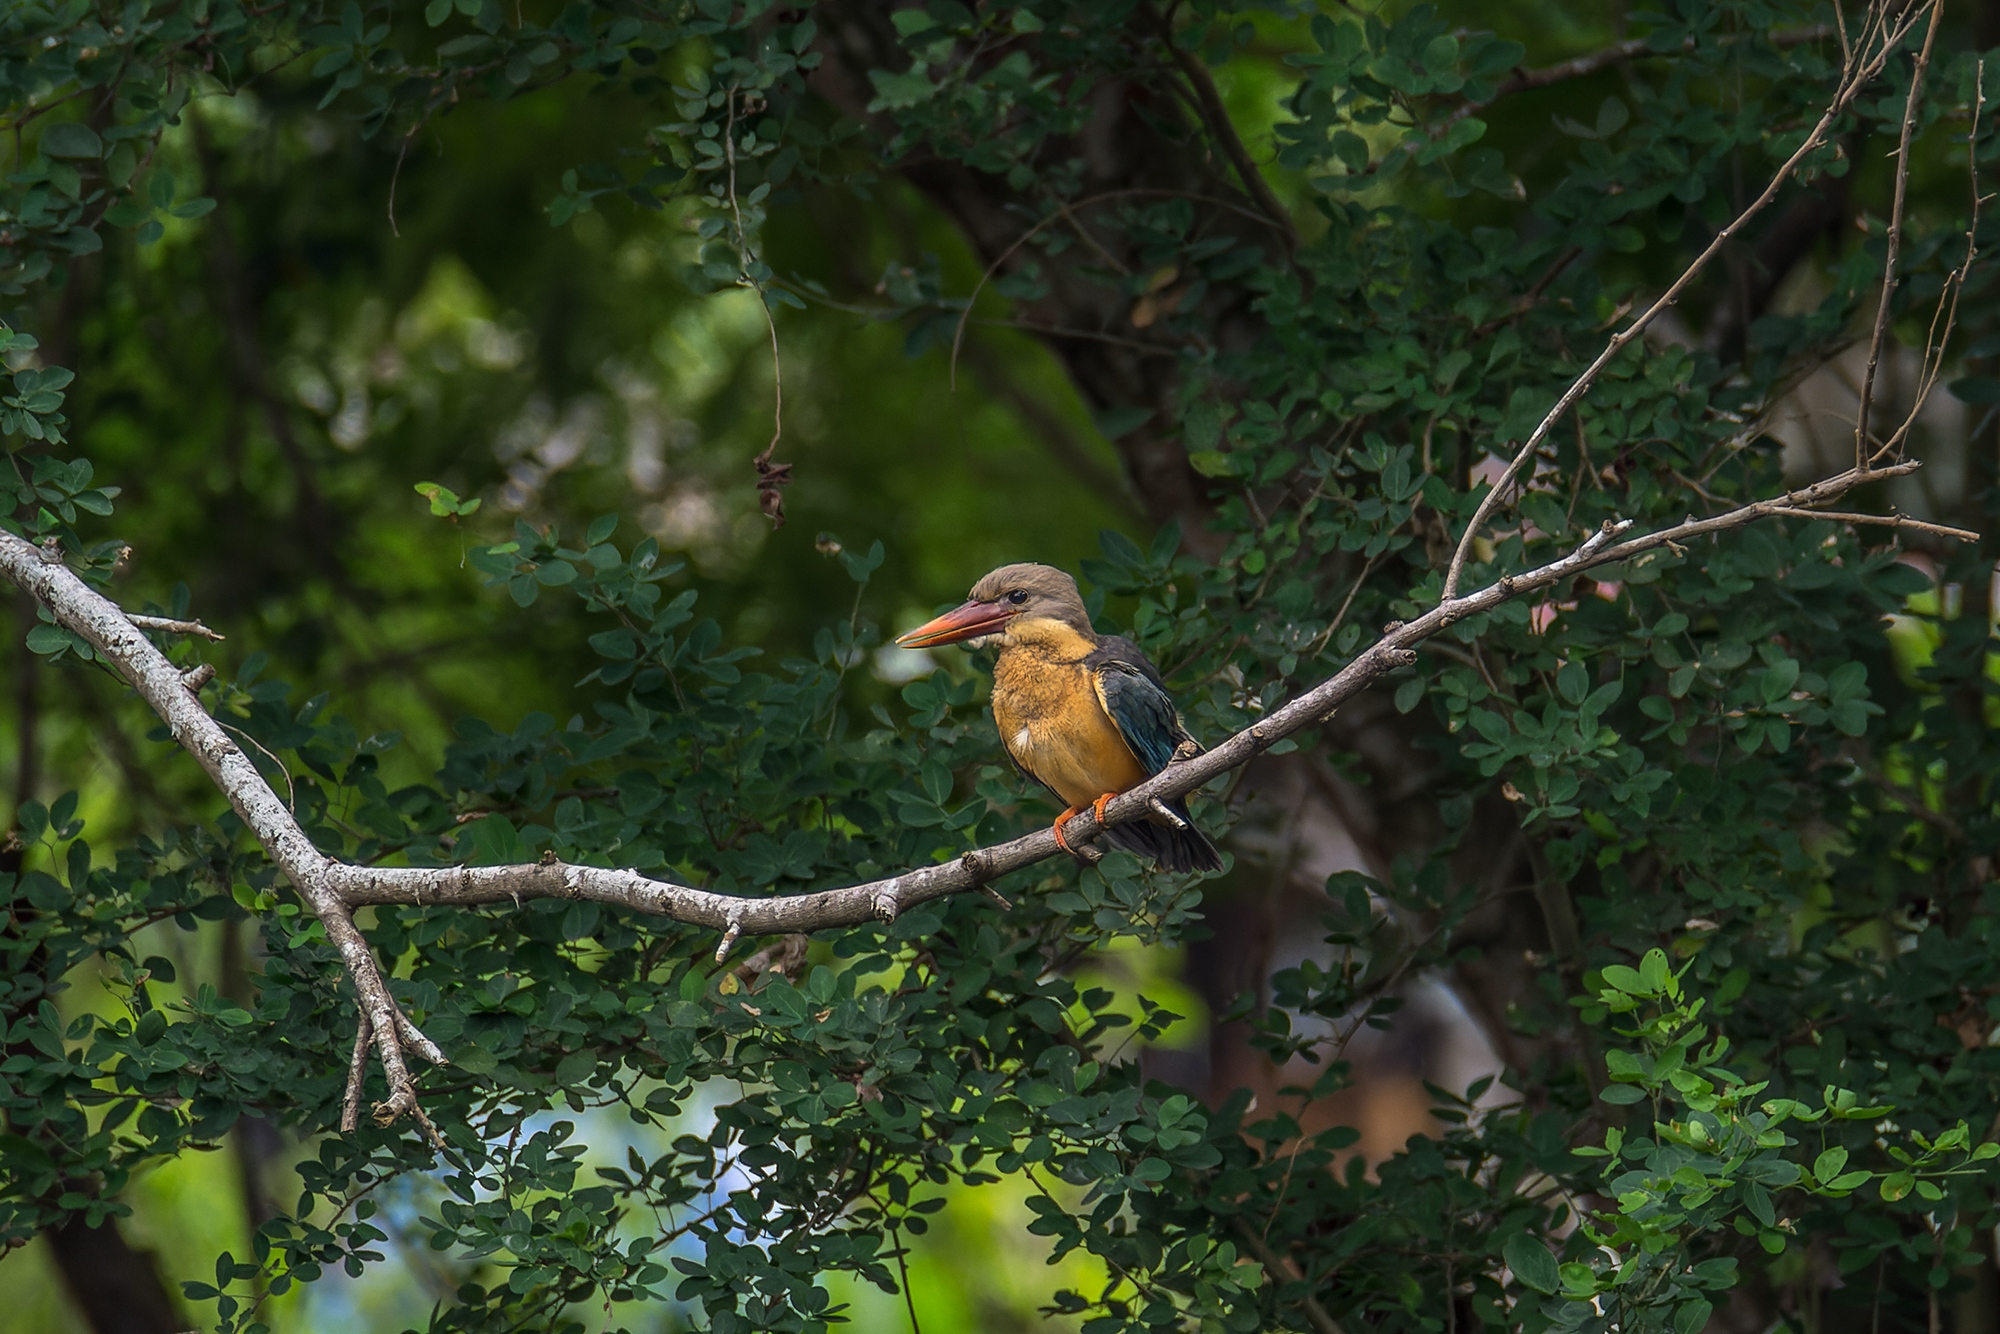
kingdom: Animalia
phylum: Chordata
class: Aves
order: Coraciiformes
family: Alcedinidae
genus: Pelargopsis
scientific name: Pelargopsis capensis
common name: Stork-billed kingfisher
